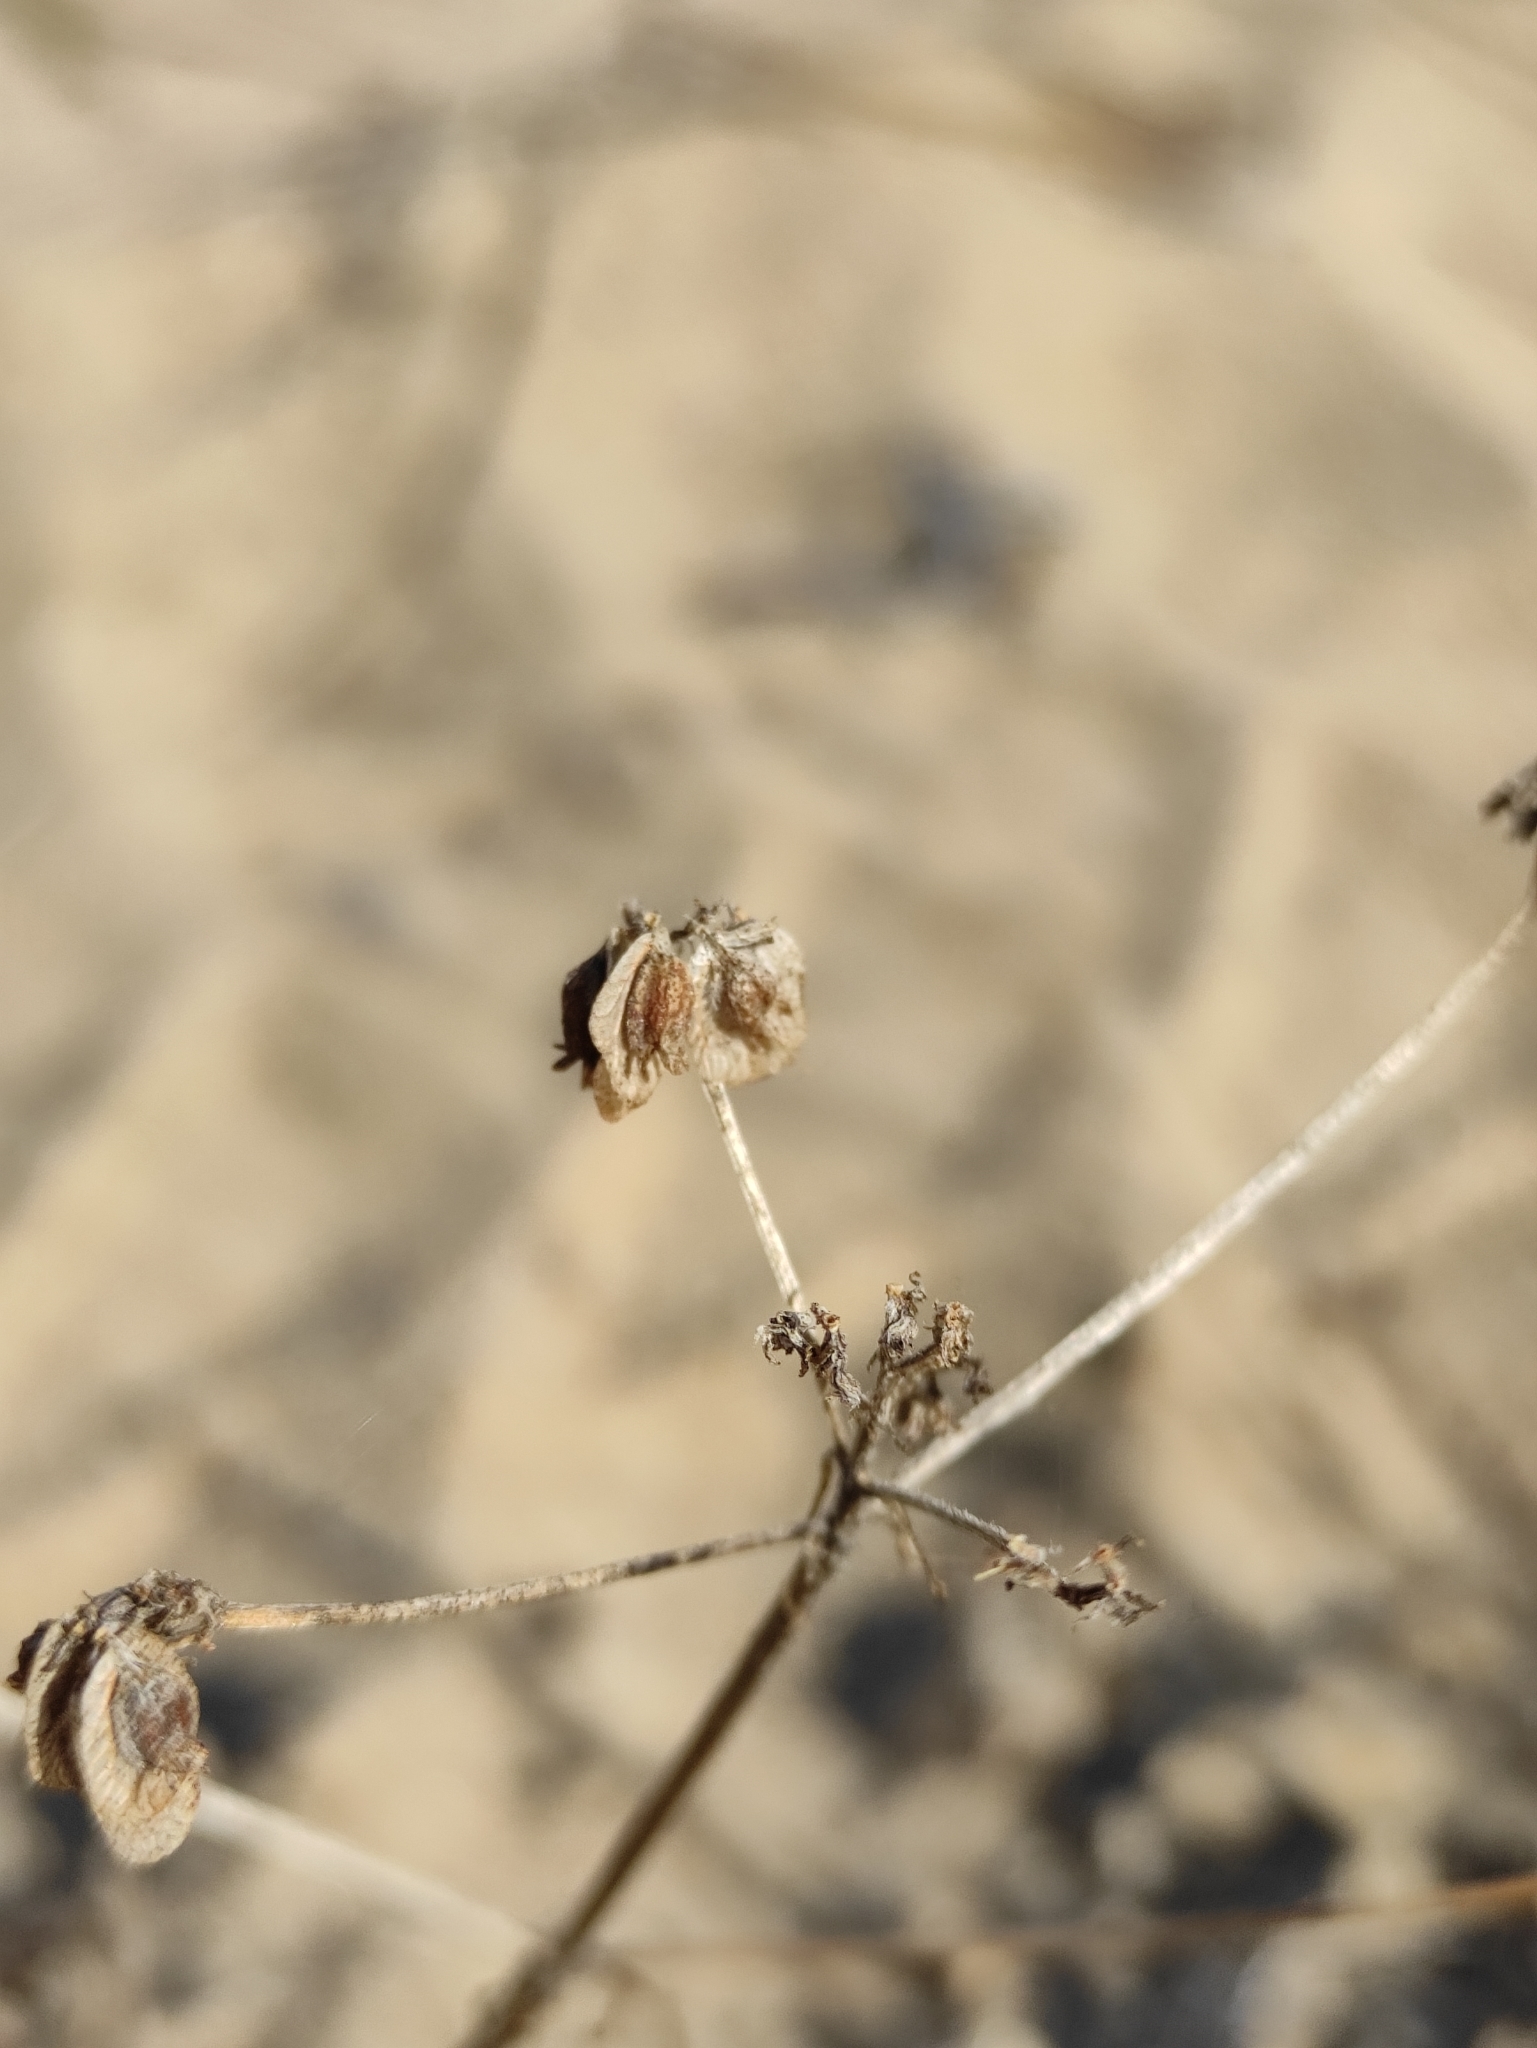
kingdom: Plantae
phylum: Tracheophyta
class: Magnoliopsida
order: Dipsacales
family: Caprifoliaceae
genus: Patrinia
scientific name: Patrinia sibirica
